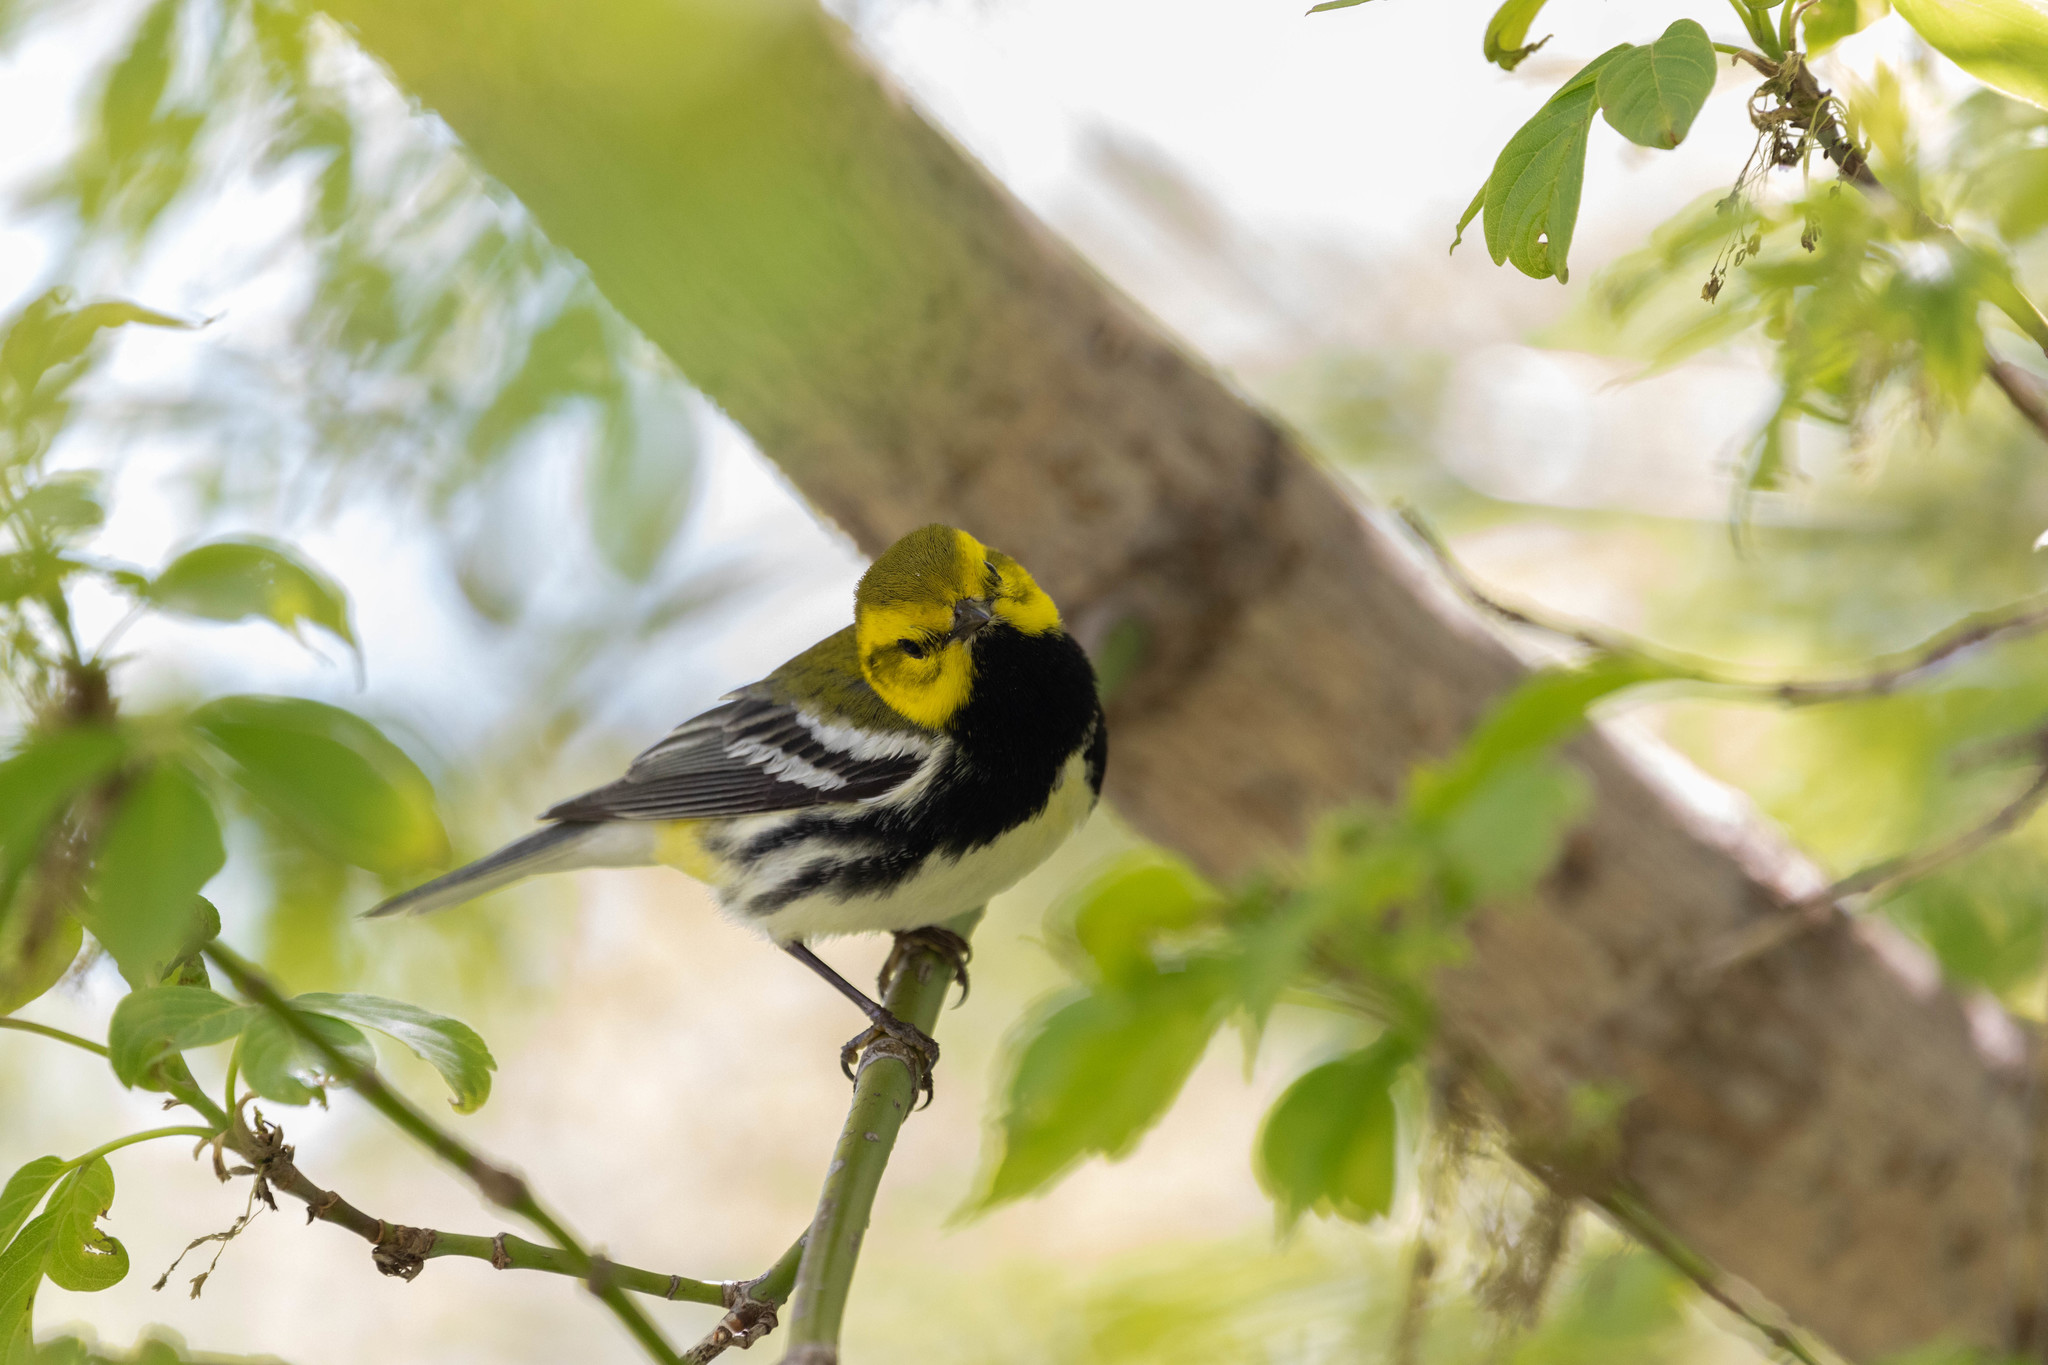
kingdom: Animalia
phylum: Chordata
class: Aves
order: Passeriformes
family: Parulidae
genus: Setophaga
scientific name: Setophaga virens
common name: Black-throated green warbler
